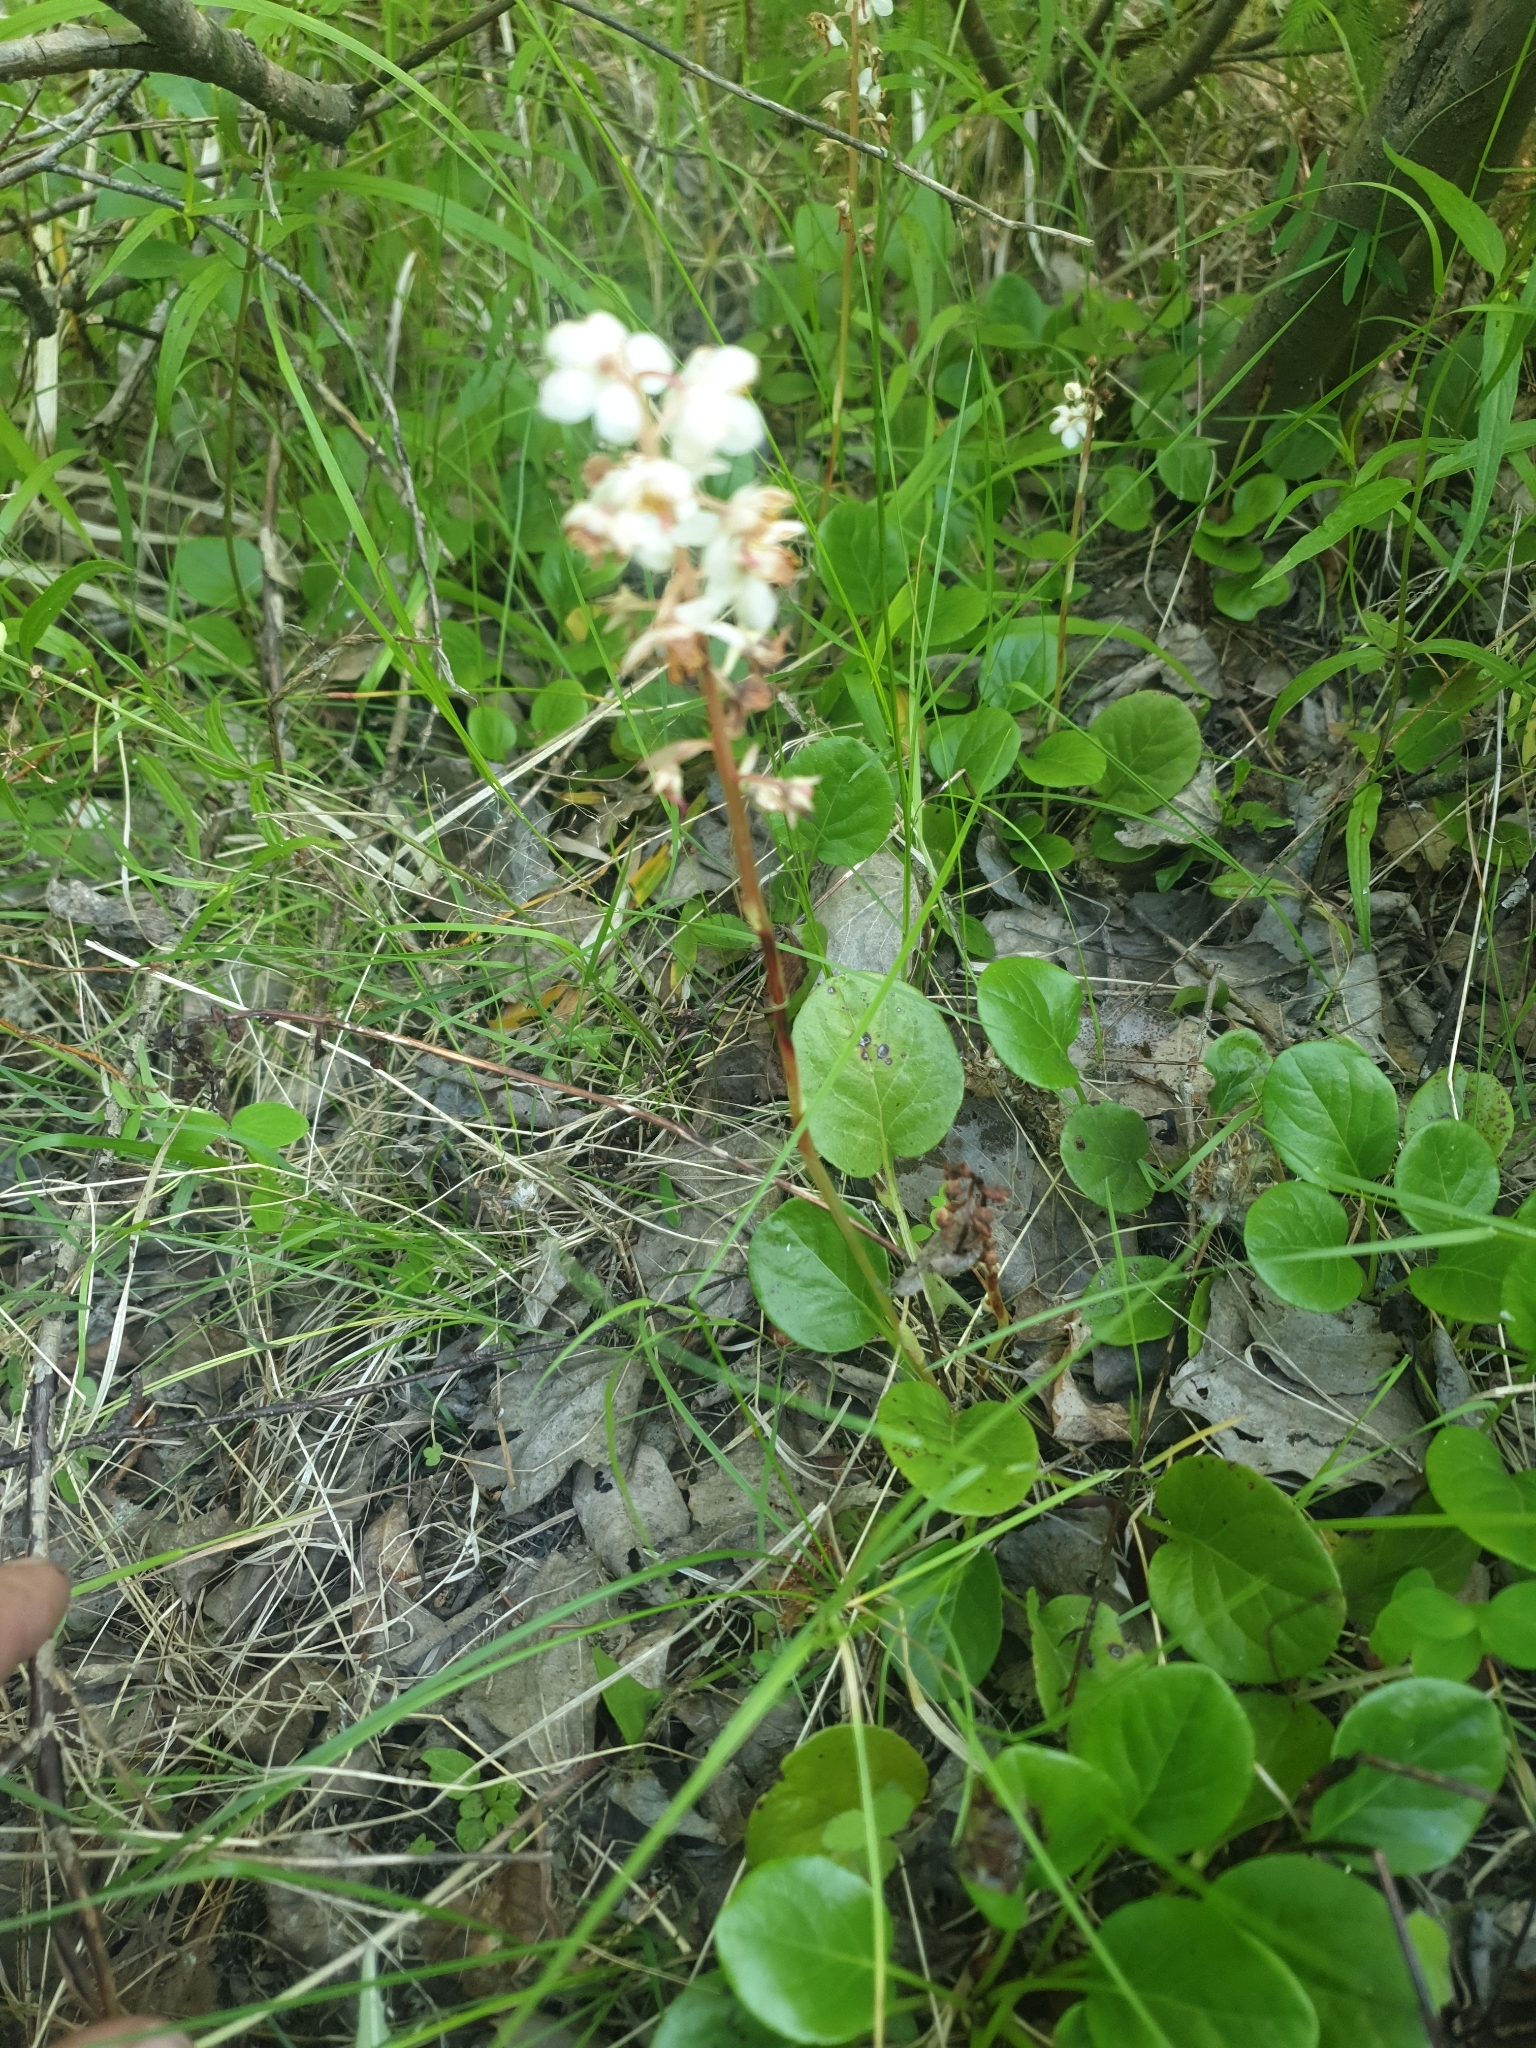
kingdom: Plantae
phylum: Tracheophyta
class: Magnoliopsida
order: Ericales
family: Ericaceae
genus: Pyrola
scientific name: Pyrola rotundifolia
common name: Round-leaved wintergreen
